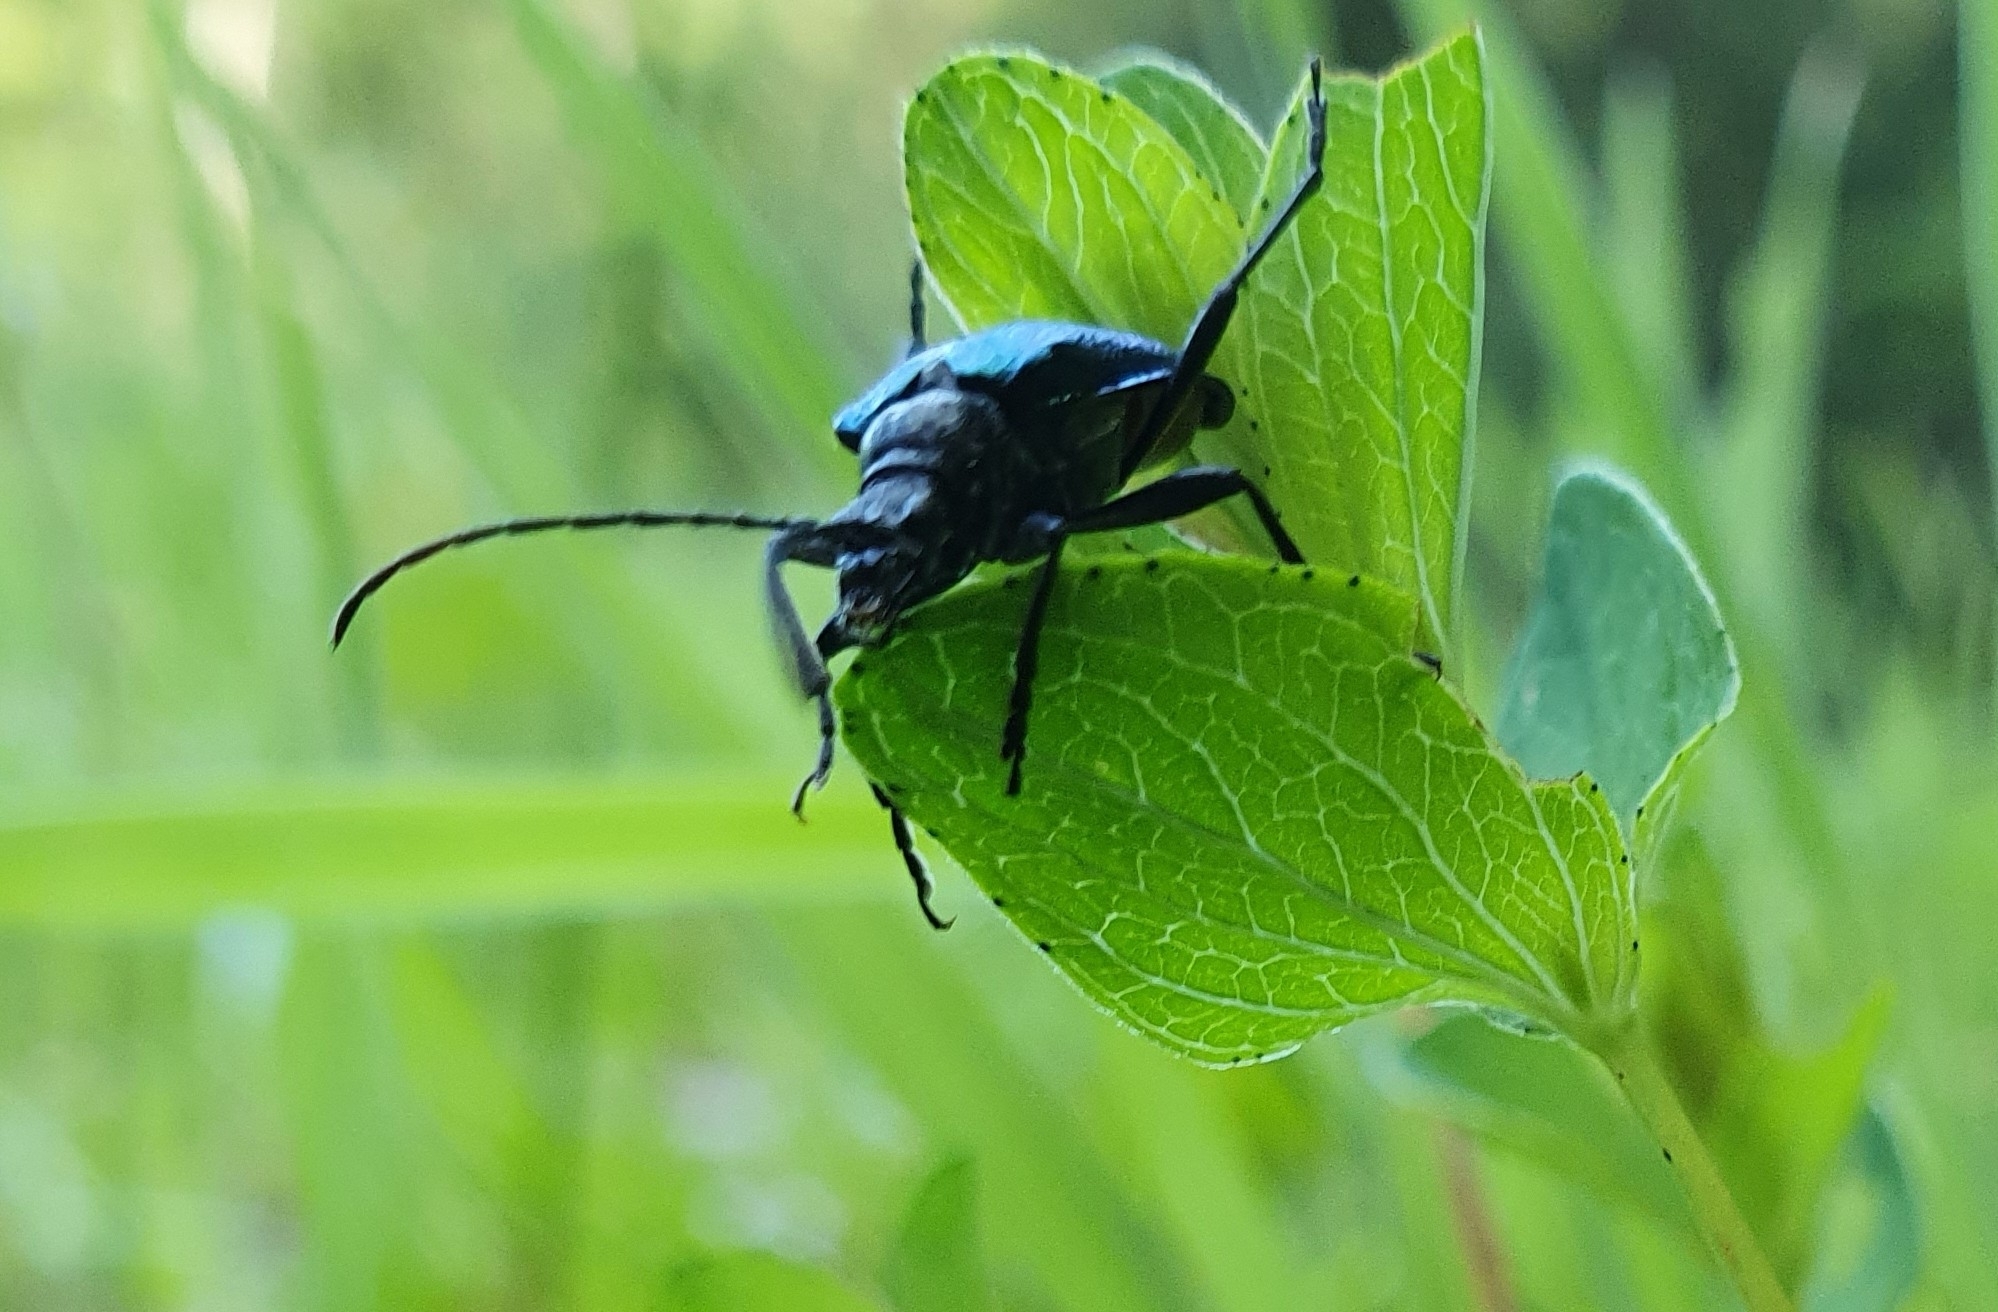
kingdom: Animalia
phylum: Arthropoda
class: Insecta
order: Coleoptera
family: Cerambycidae
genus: Gaurotes
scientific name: Gaurotes virginea
